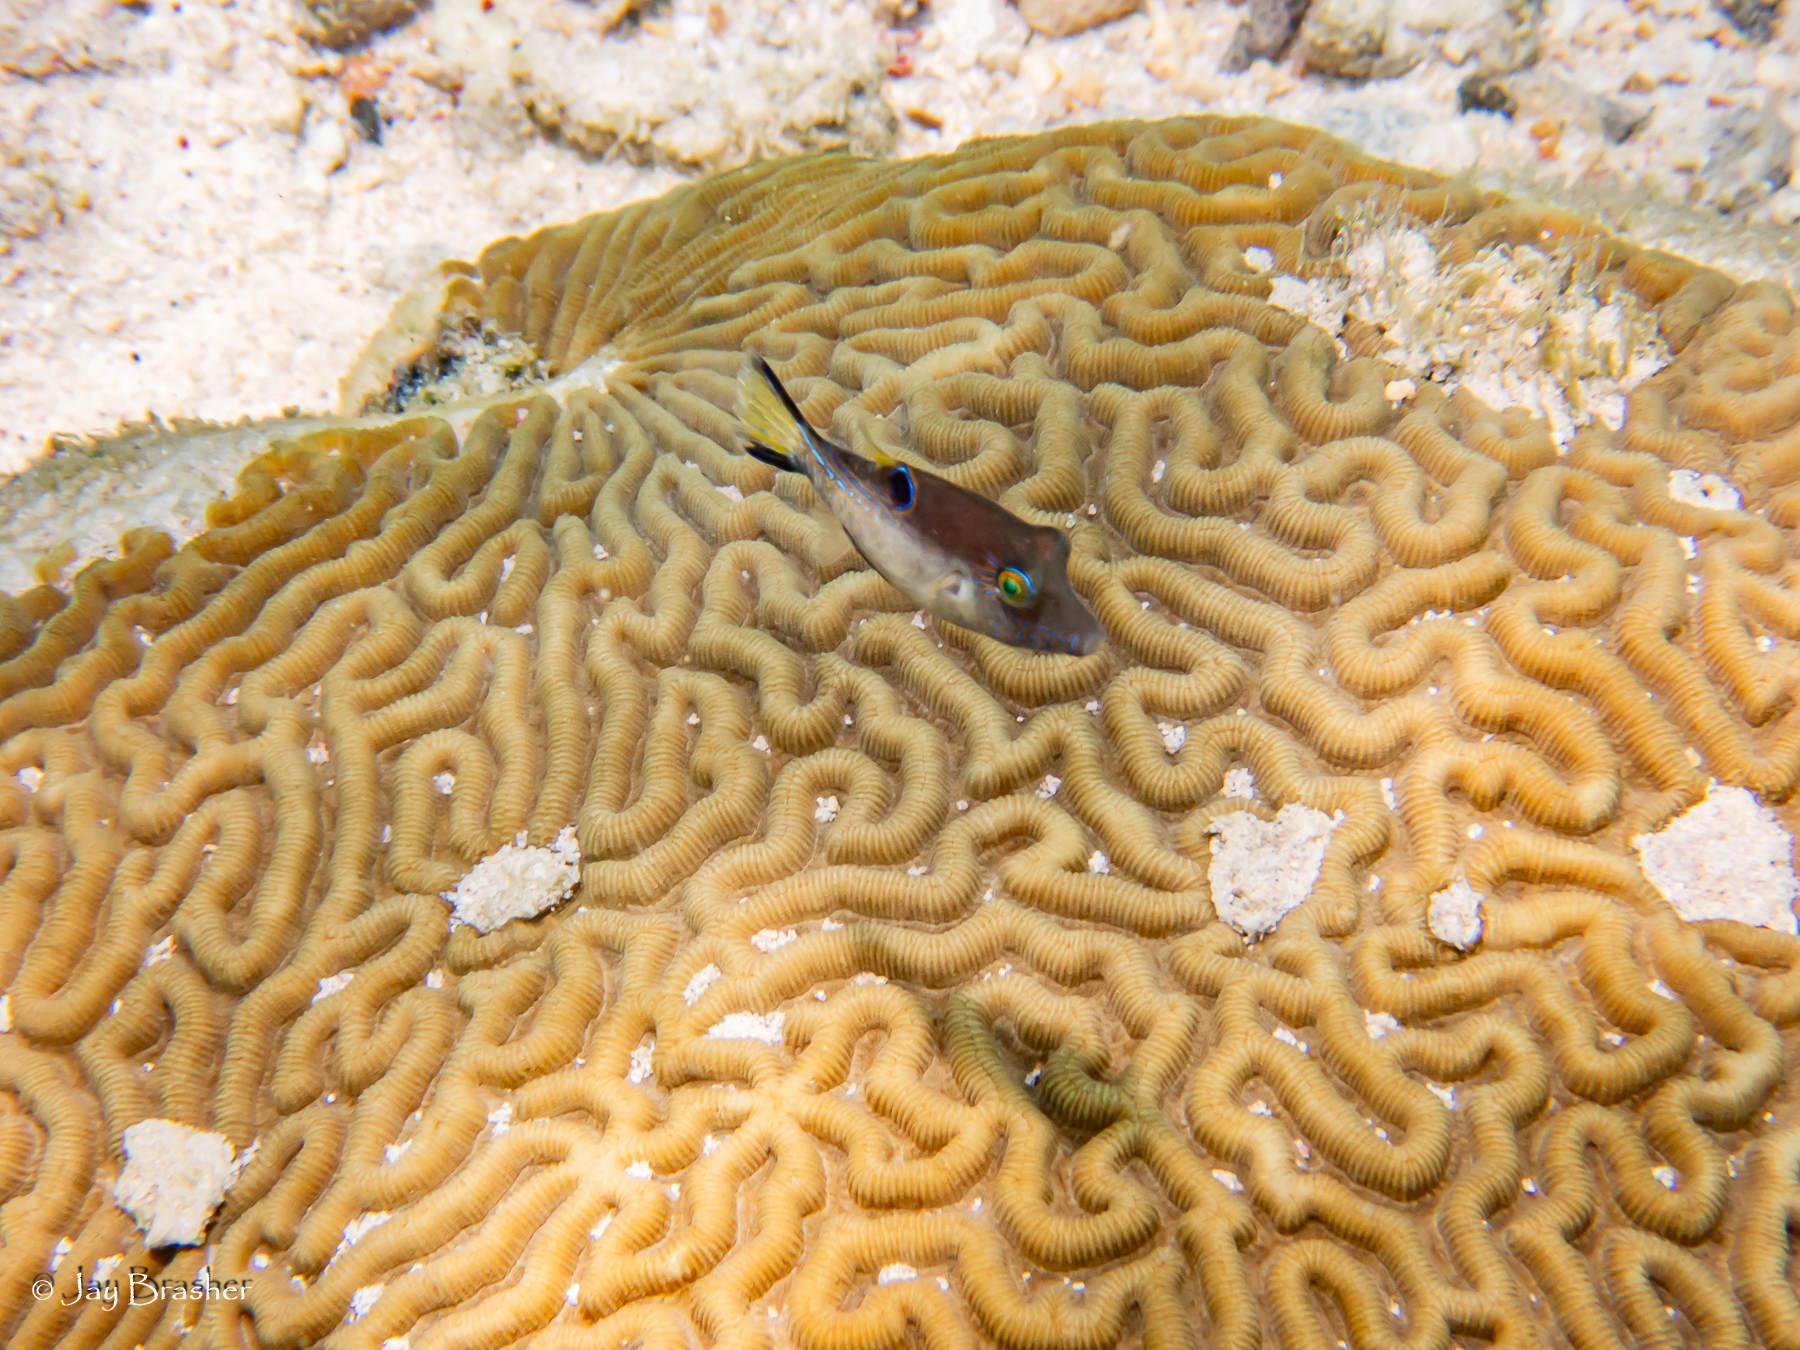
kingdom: Animalia
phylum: Chordata
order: Tetraodontiformes
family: Tetraodontidae
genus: Canthigaster
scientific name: Canthigaster rostrata
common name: Caribbean sharpnose-puffer
